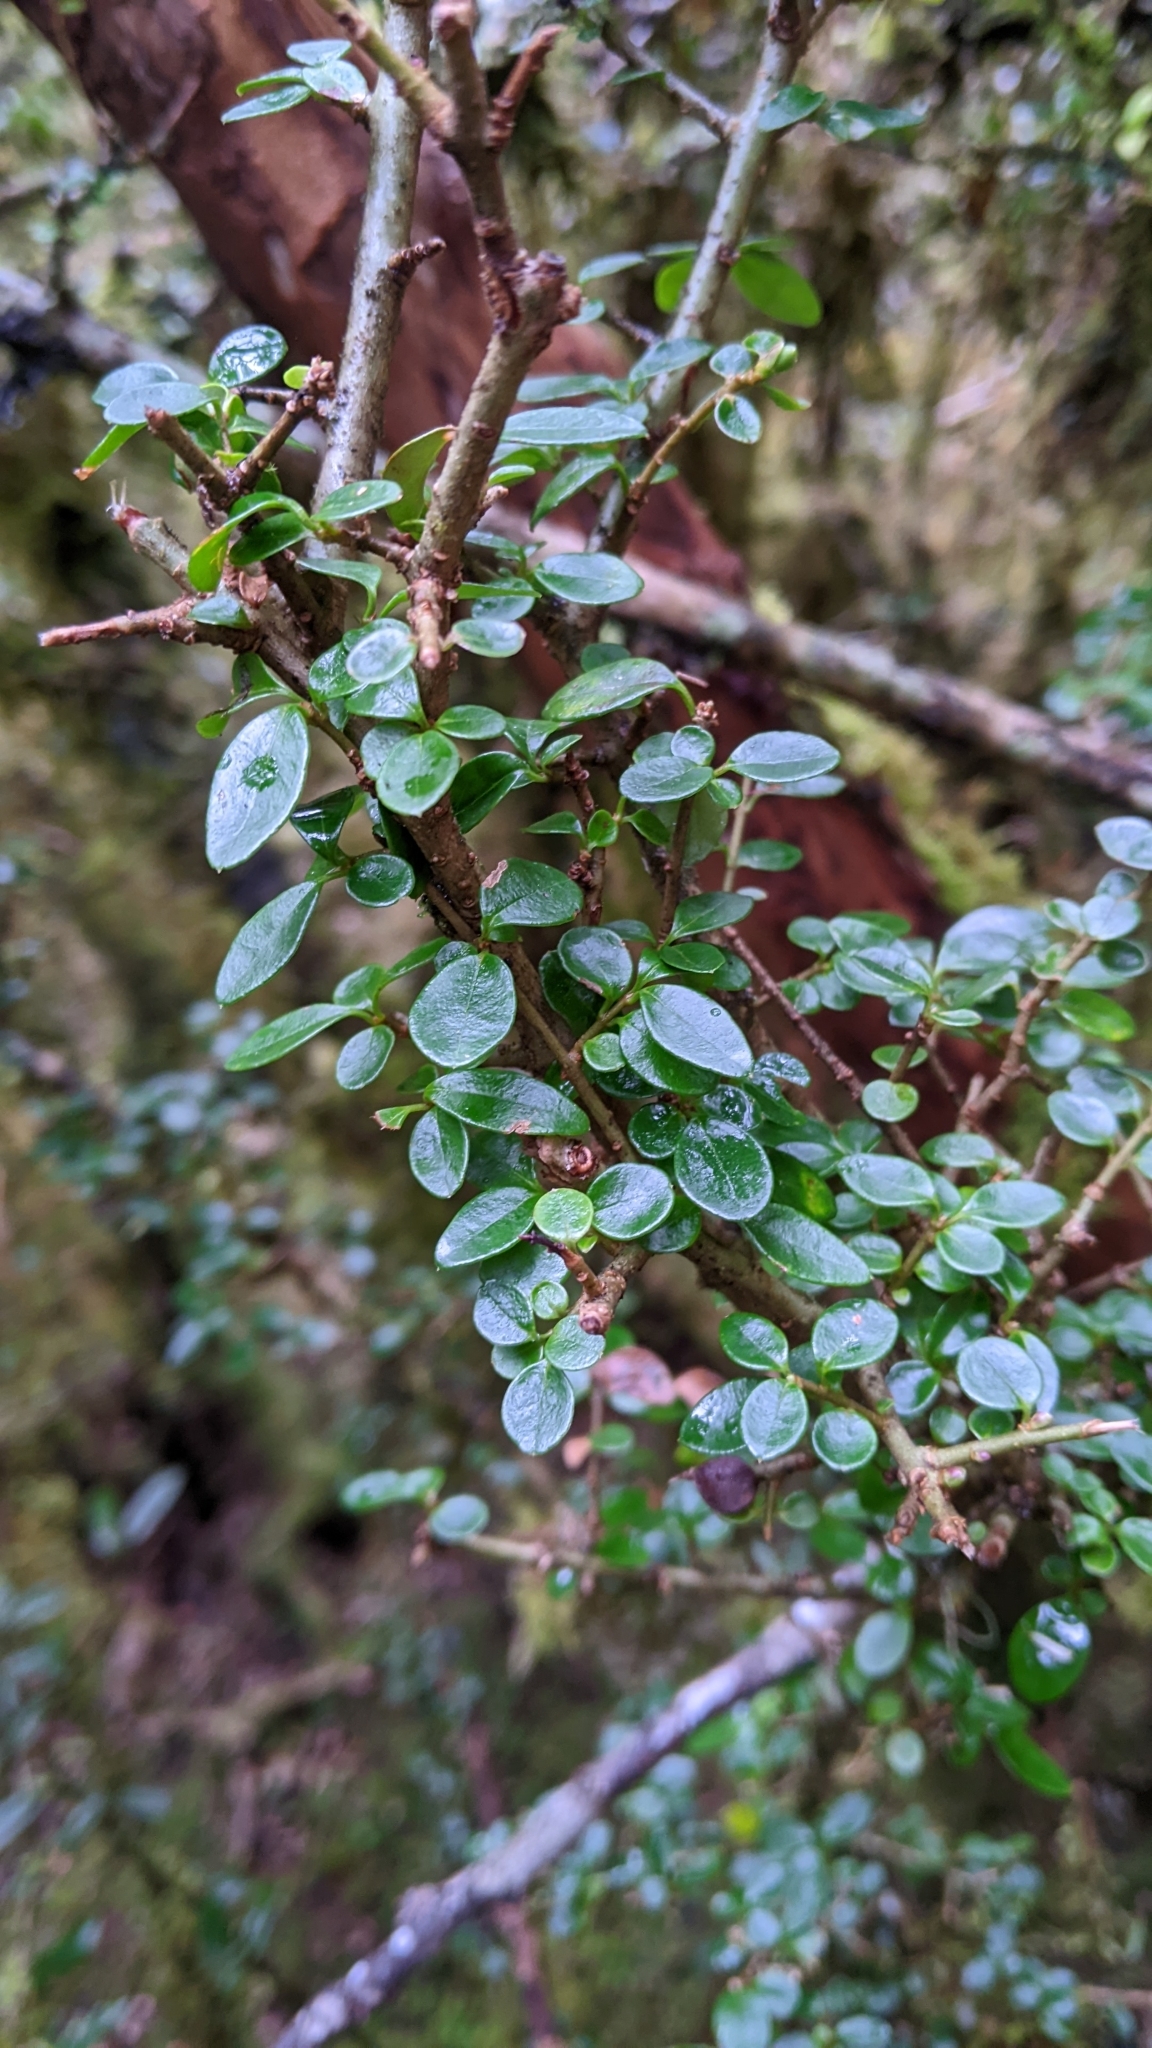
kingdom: Plantae
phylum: Tracheophyta
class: Magnoliopsida
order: Lamiales
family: Oleaceae
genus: Ligustrum
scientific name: Ligustrum morrisonense
